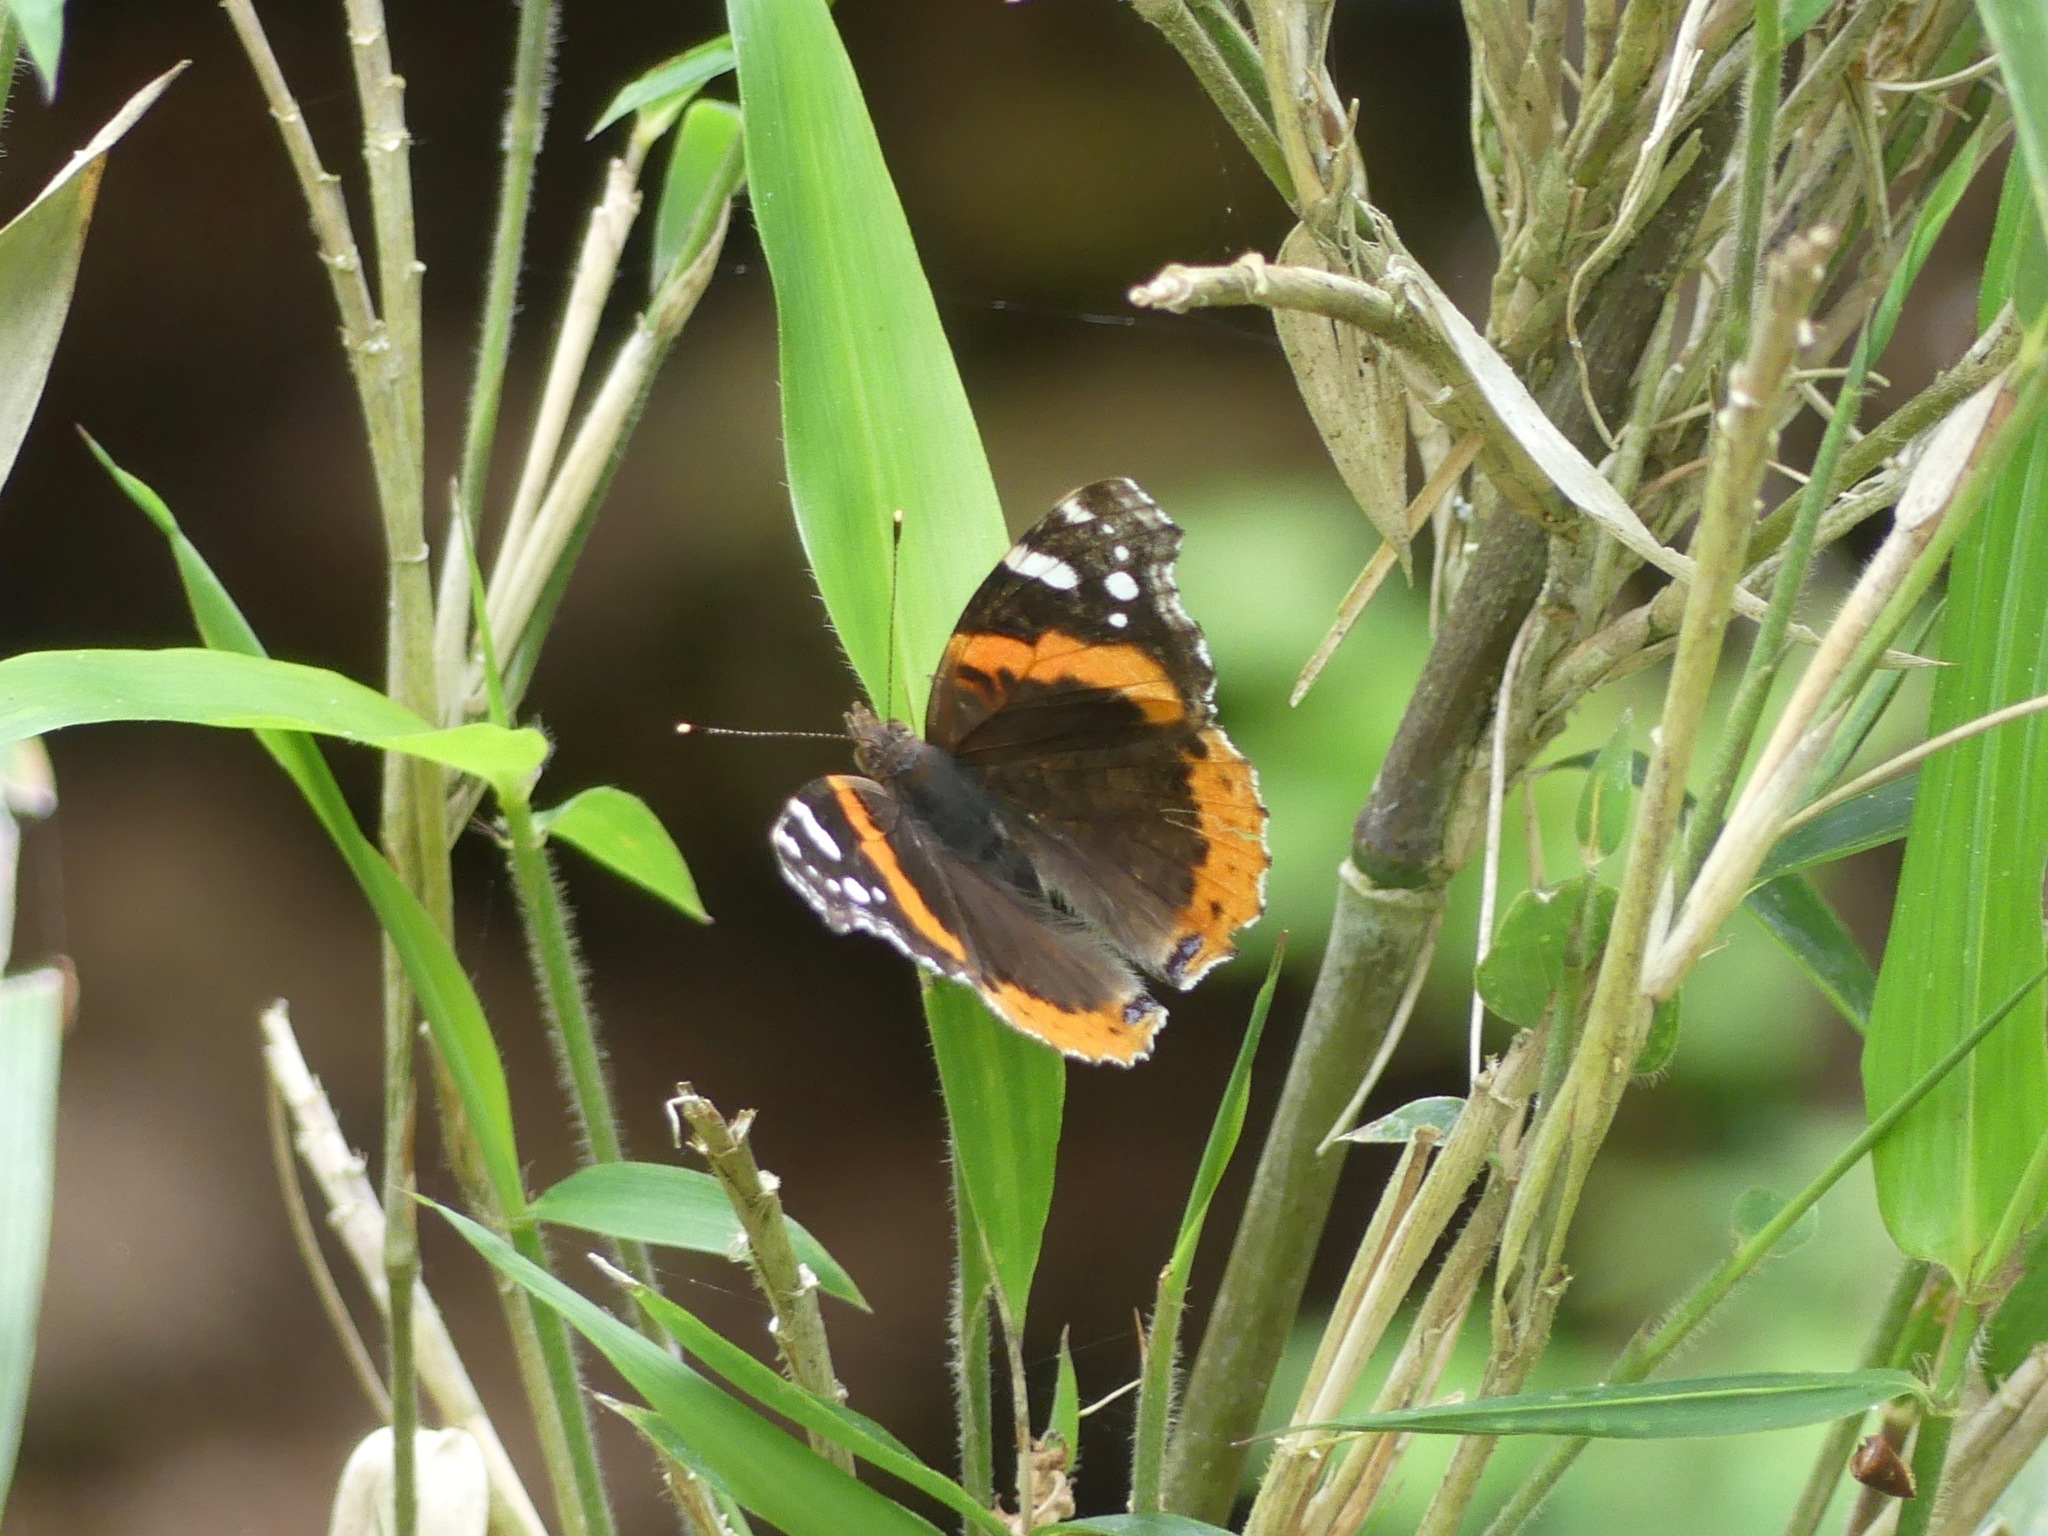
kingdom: Animalia
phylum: Arthropoda
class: Insecta
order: Lepidoptera
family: Nymphalidae
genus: Vanessa
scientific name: Vanessa atalanta
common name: Red admiral
